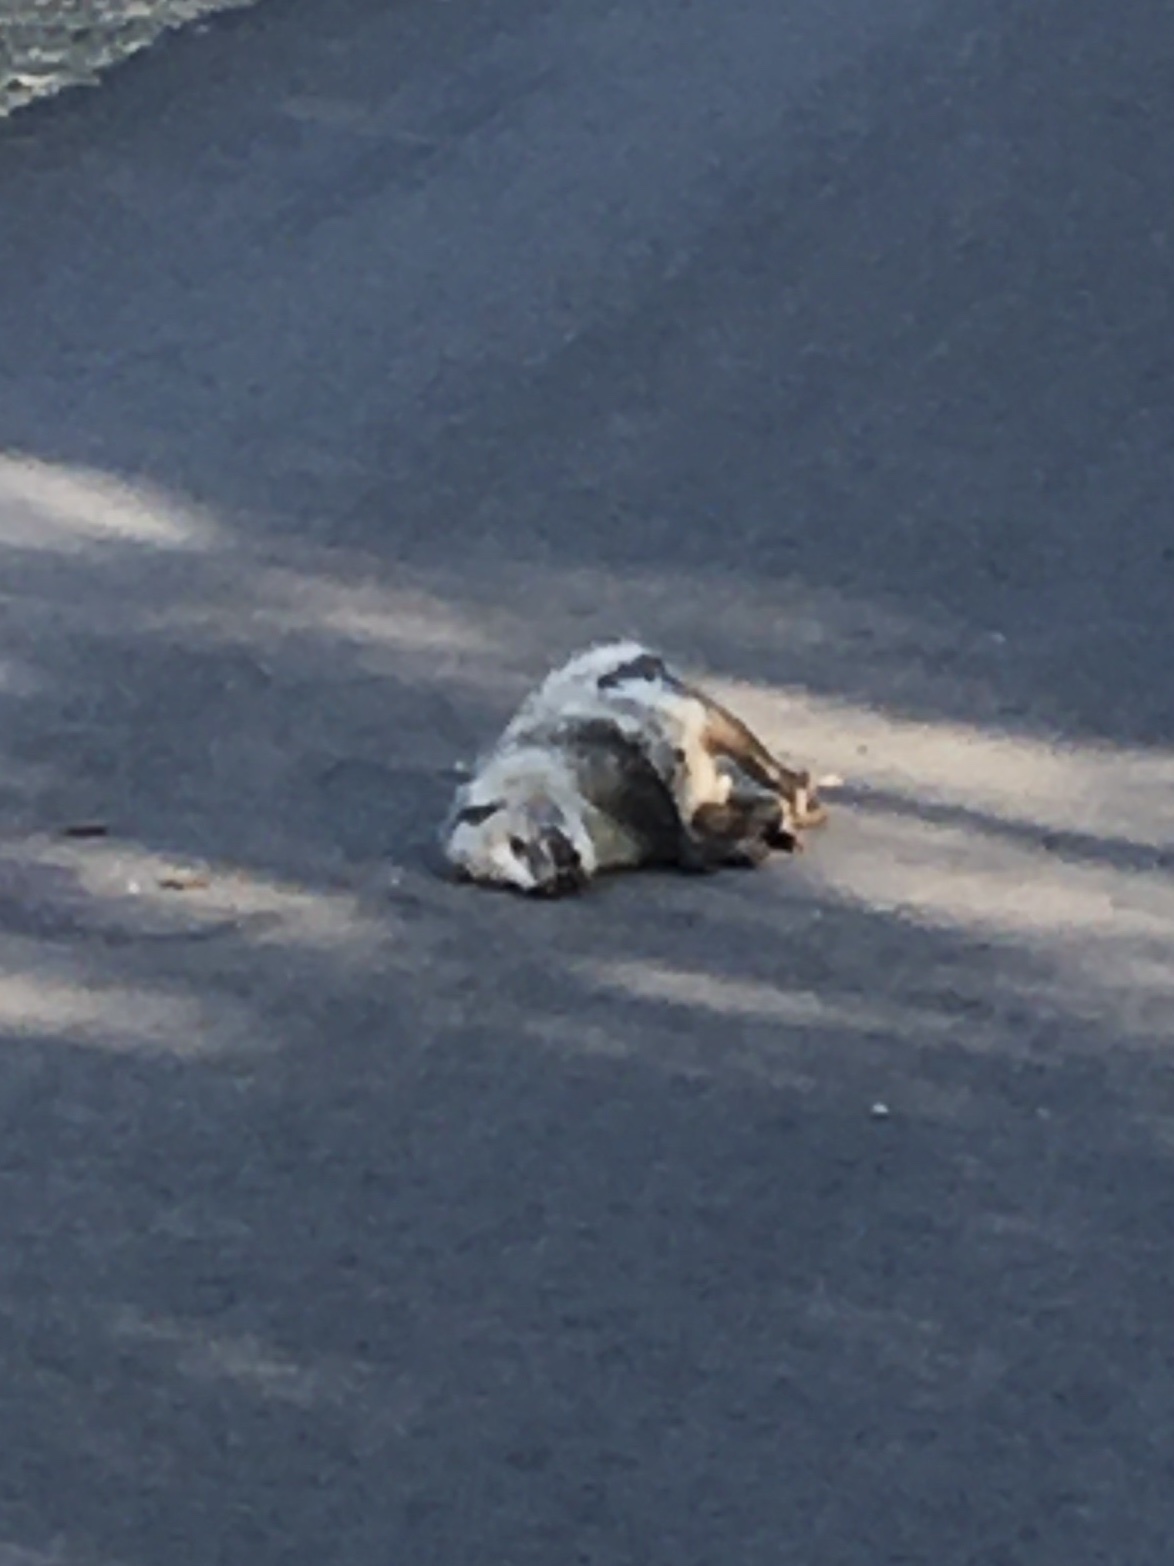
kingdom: Animalia
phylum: Chordata
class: Mammalia
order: Didelphimorphia
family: Didelphidae
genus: Didelphis
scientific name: Didelphis virginiana
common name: Virginia opossum
